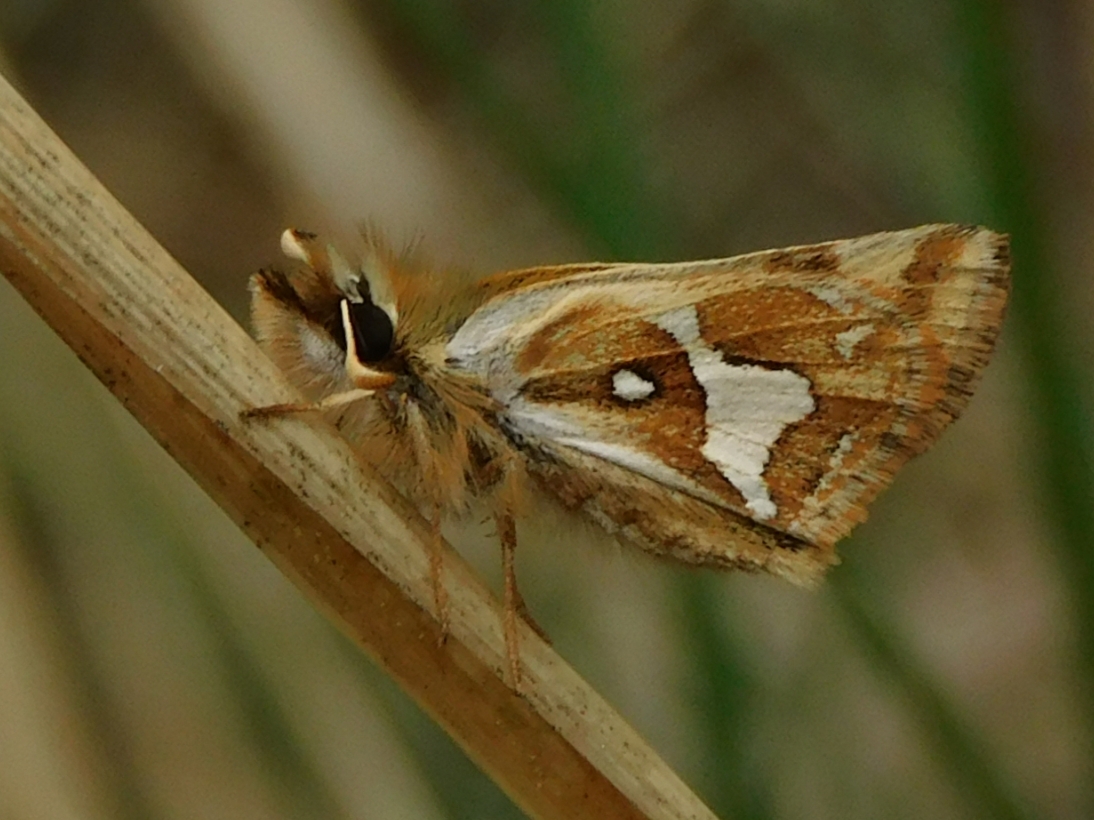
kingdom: Animalia
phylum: Arthropoda
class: Insecta
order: Lepidoptera
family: Hesperiidae
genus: Carterocephalus
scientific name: Carterocephalus avanti
